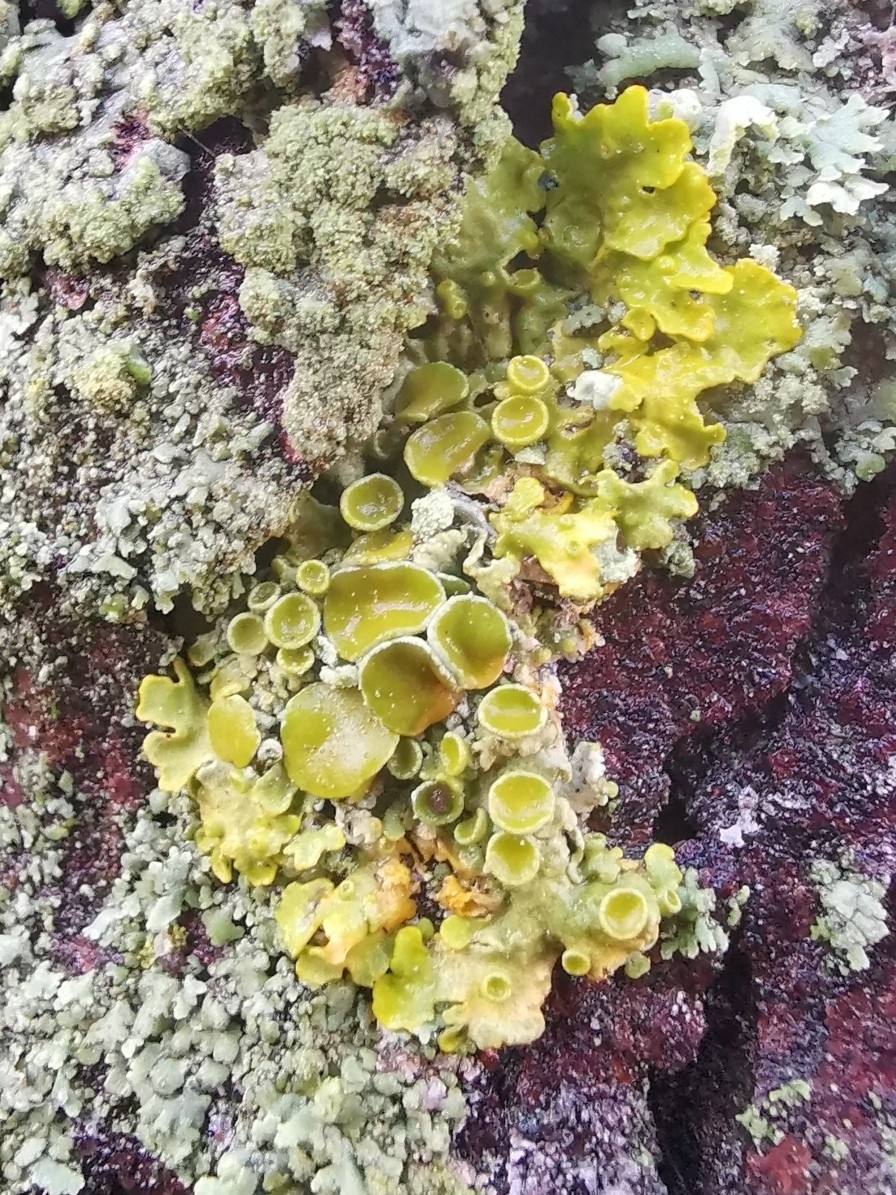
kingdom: Fungi
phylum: Ascomycota
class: Lecanoromycetes
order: Teloschistales
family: Teloschistaceae
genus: Xanthoria
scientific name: Xanthoria parietina
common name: Common orange lichen
